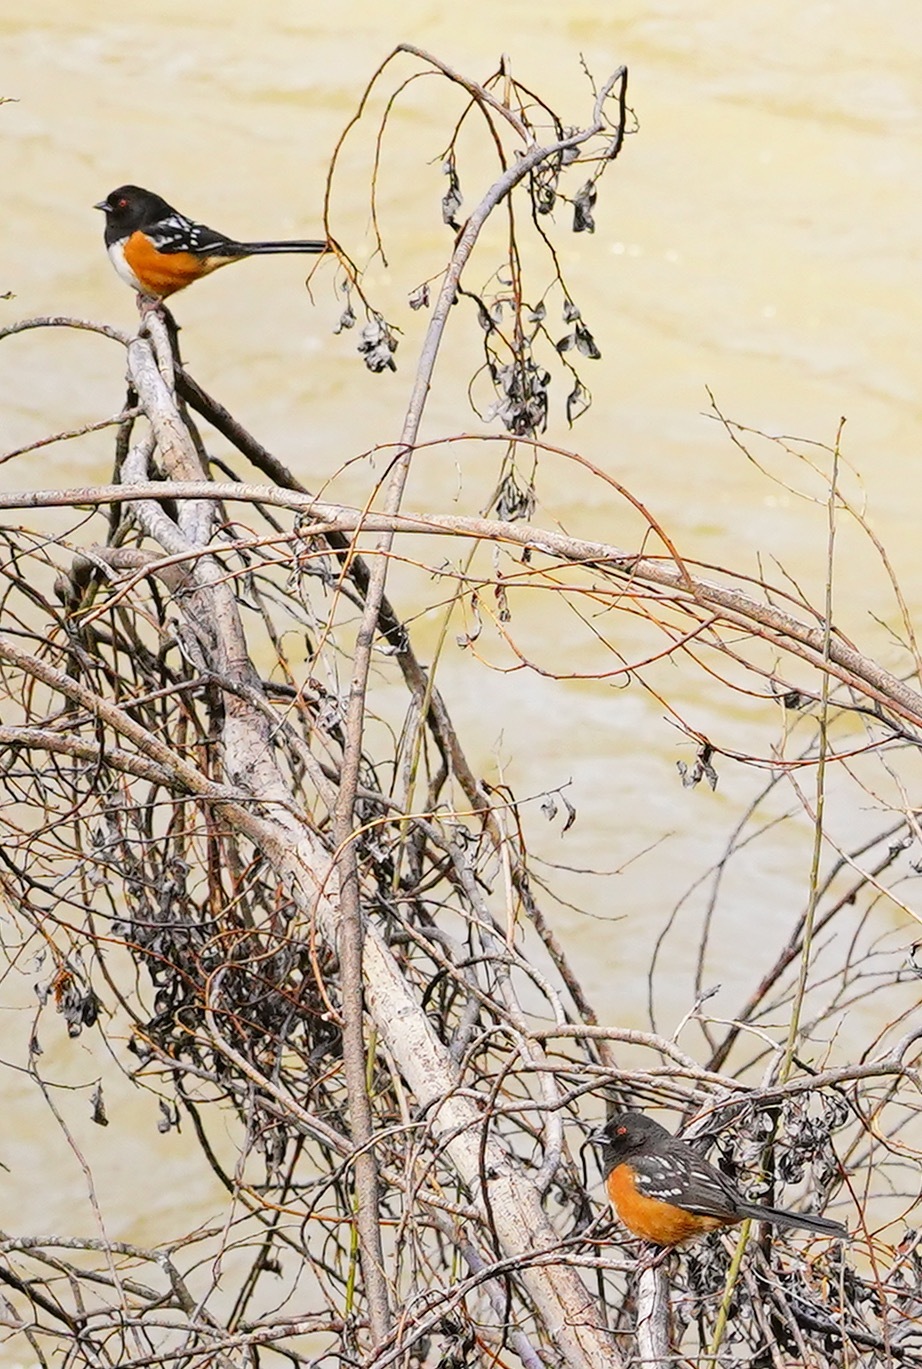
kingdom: Animalia
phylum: Chordata
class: Aves
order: Passeriformes
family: Passerellidae
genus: Pipilo
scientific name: Pipilo maculatus
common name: Spotted towhee
